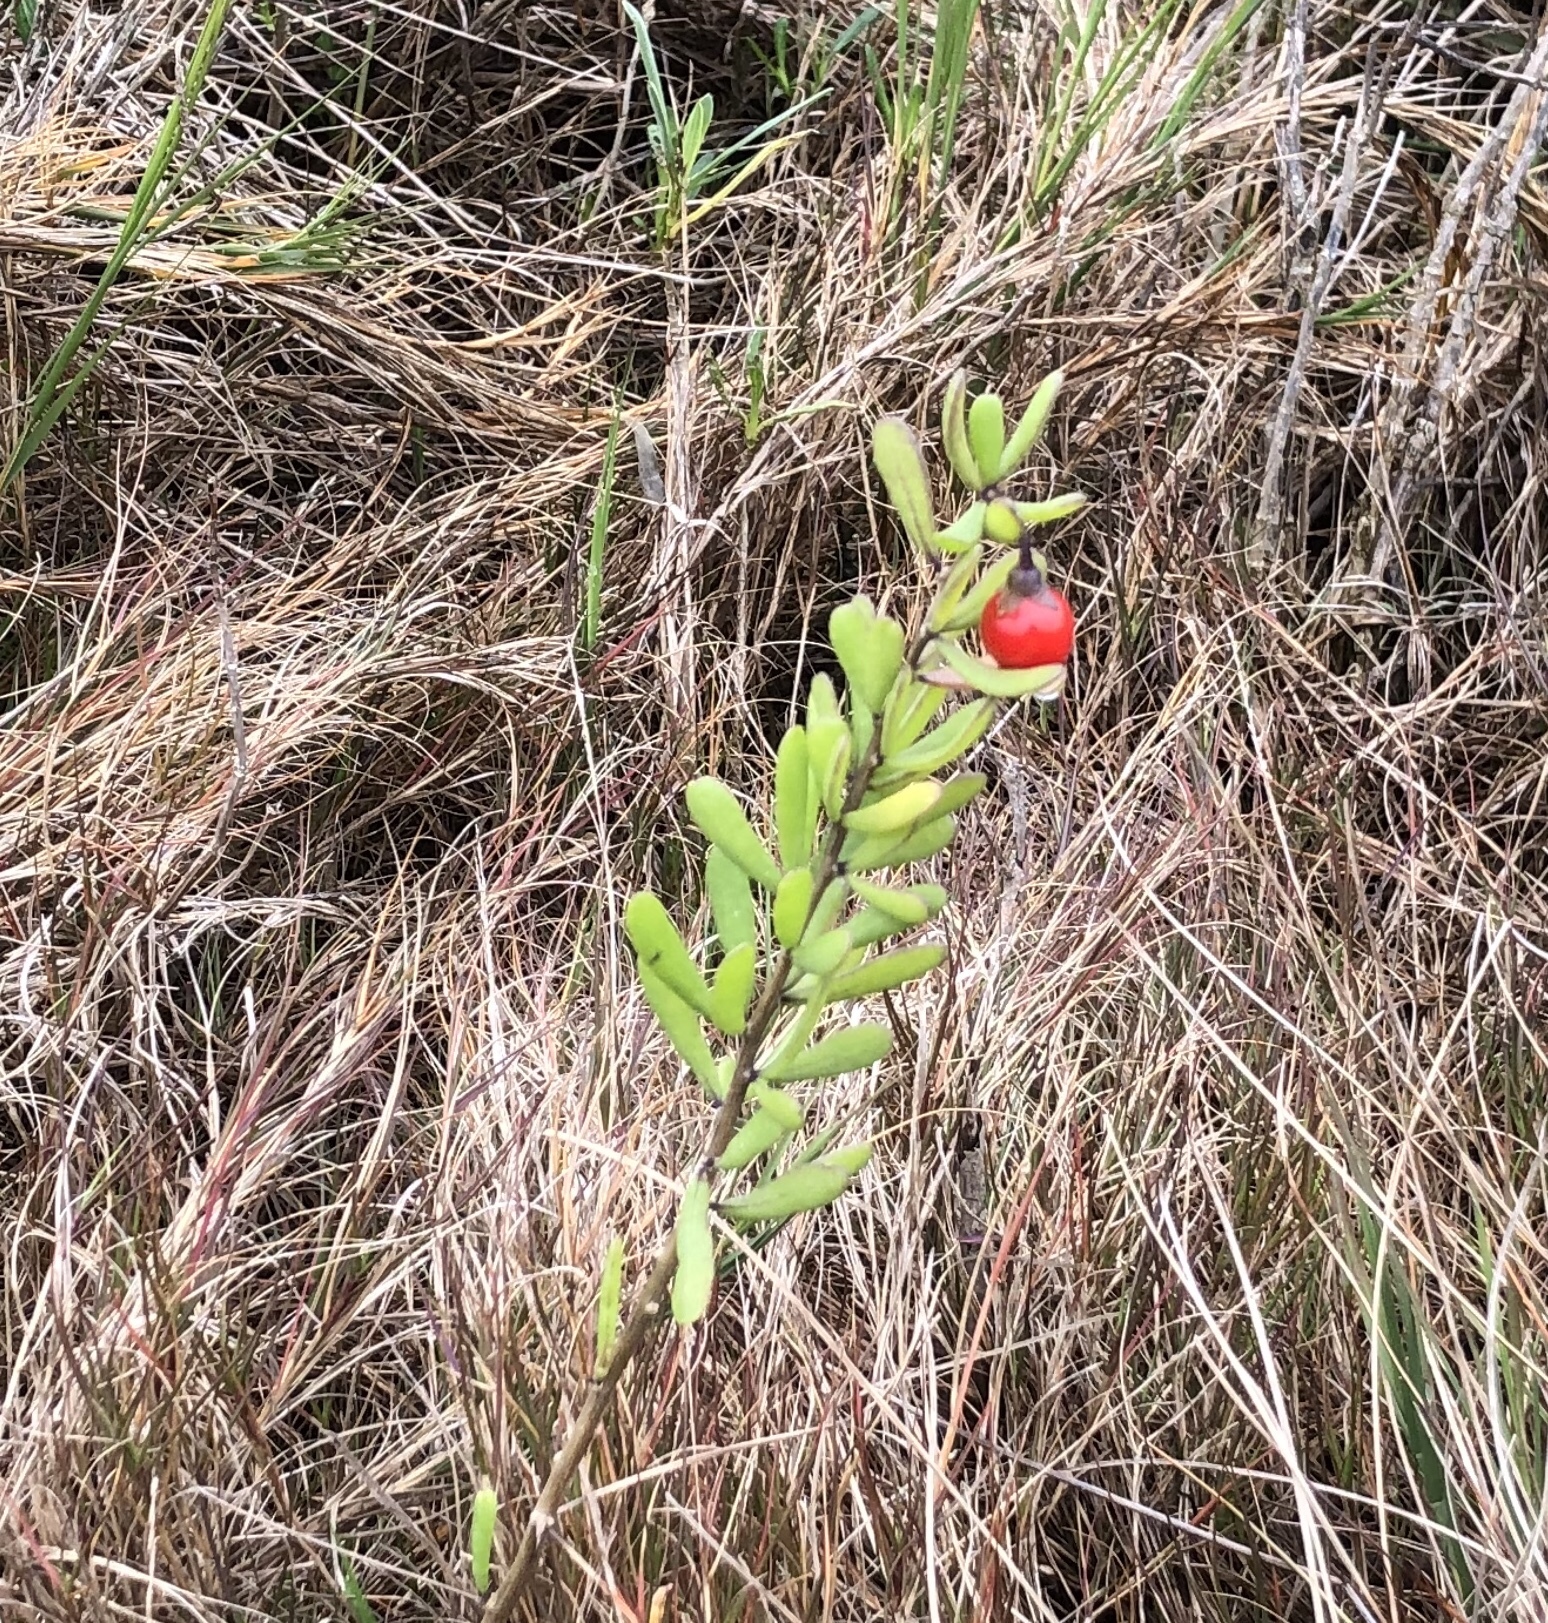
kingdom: Plantae
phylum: Tracheophyta
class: Magnoliopsida
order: Solanales
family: Solanaceae
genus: Lycium
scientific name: Lycium carolinianum
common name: Christmasberry
